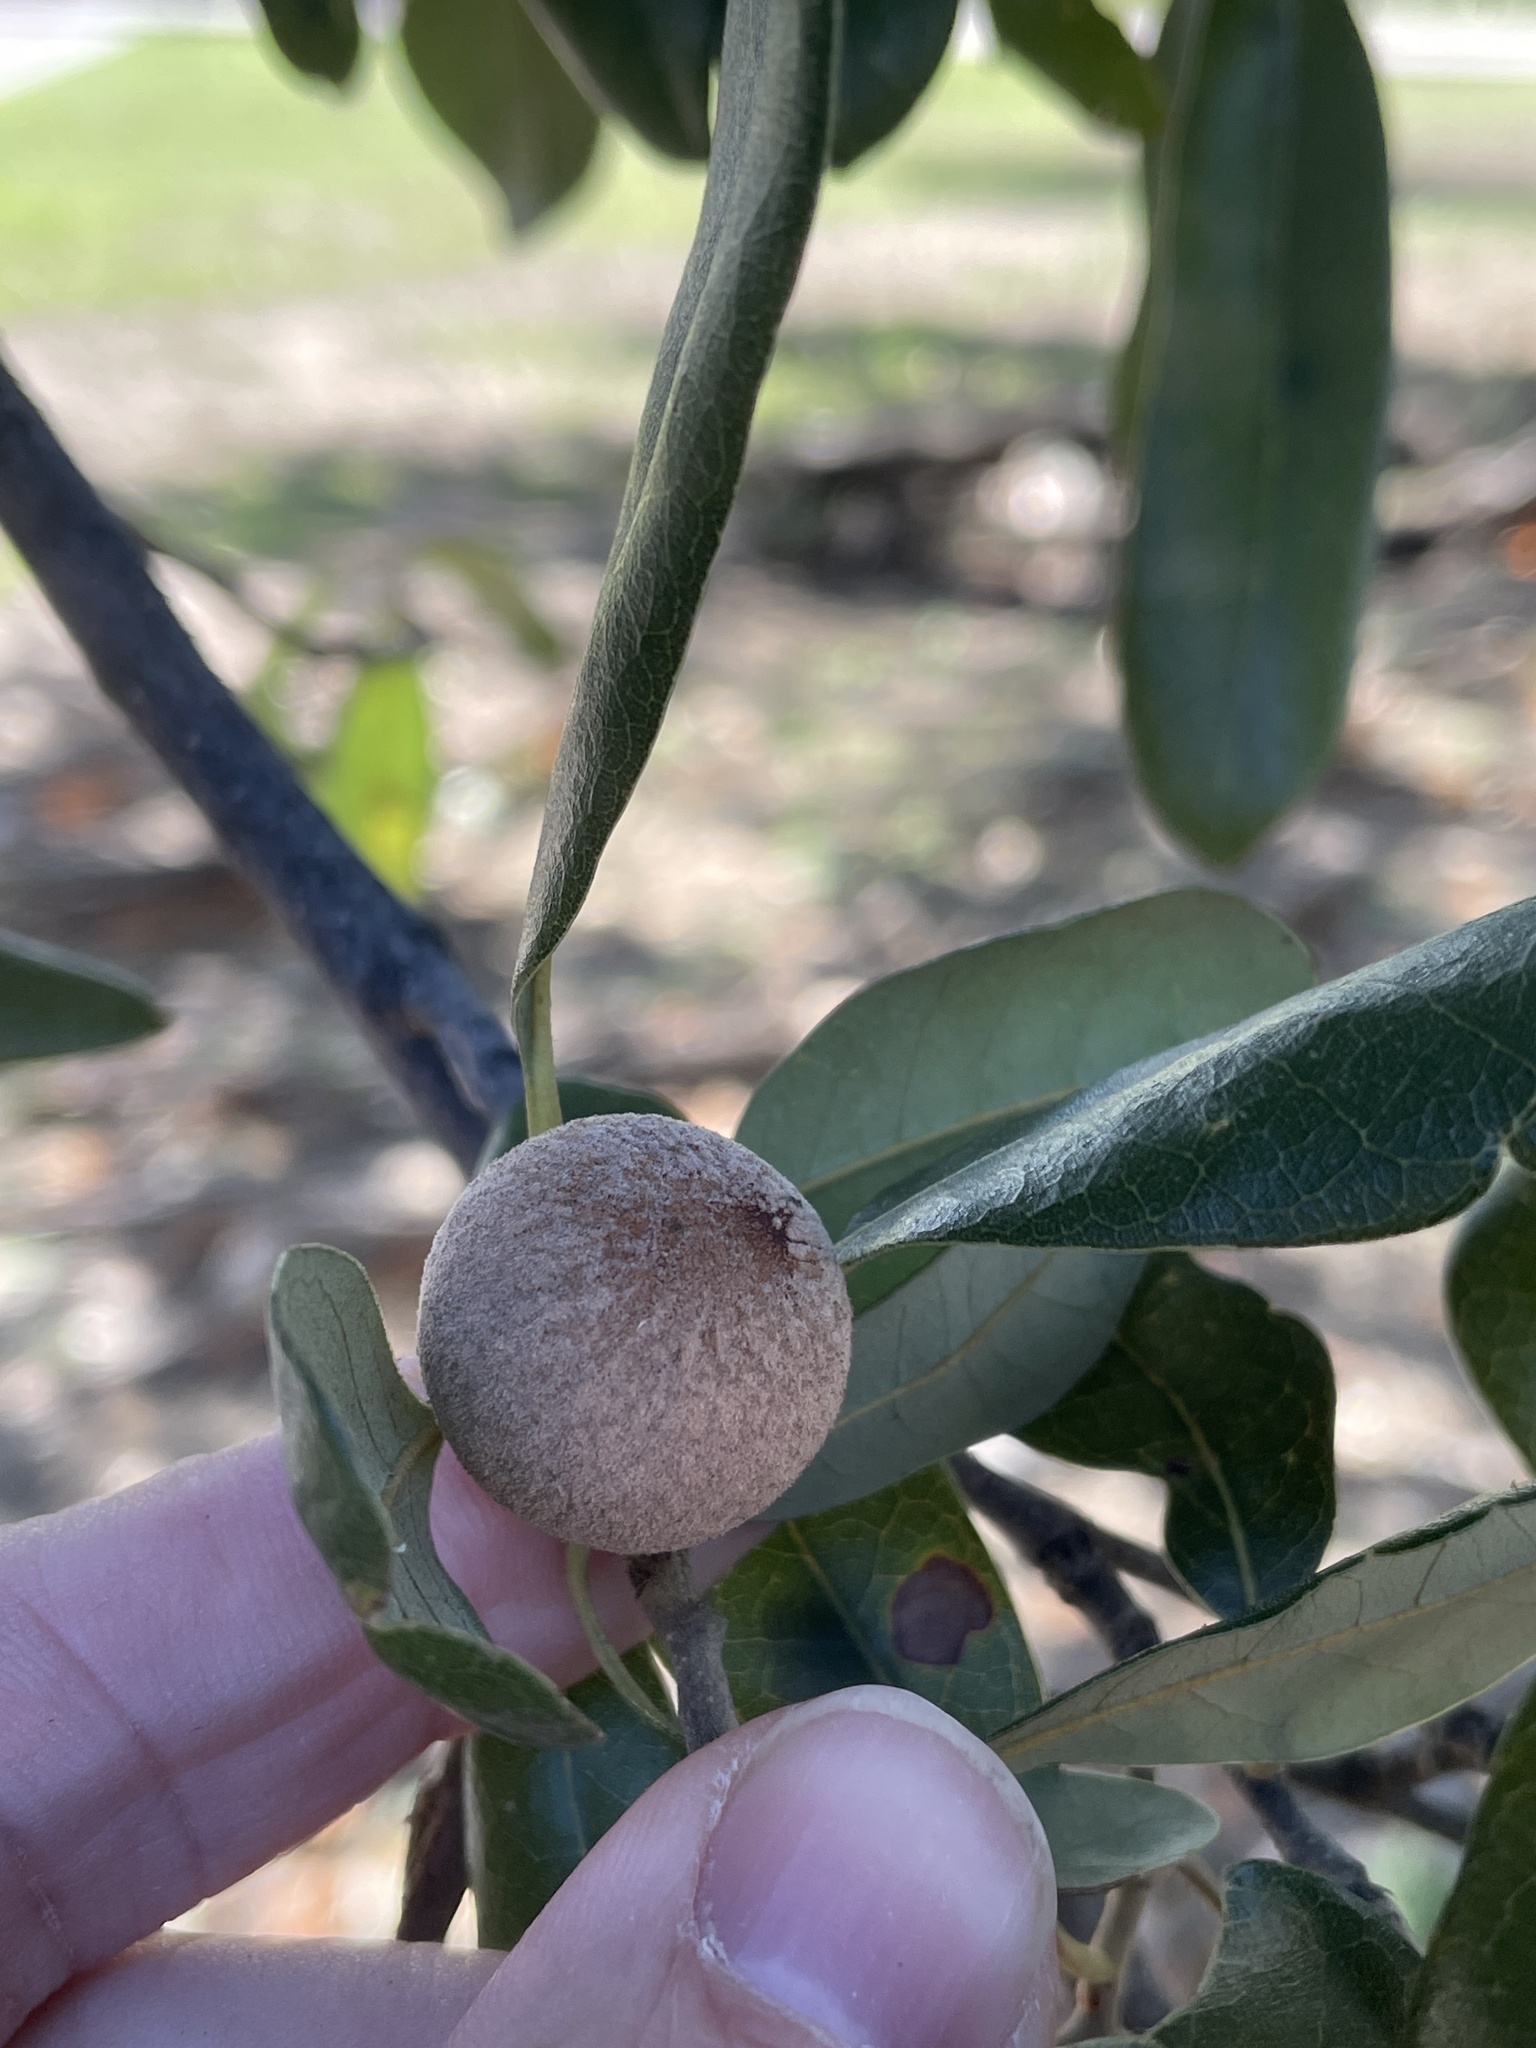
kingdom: Animalia
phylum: Arthropoda
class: Insecta
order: Hymenoptera
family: Cynipidae
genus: Disholcaspis
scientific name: Disholcaspis
